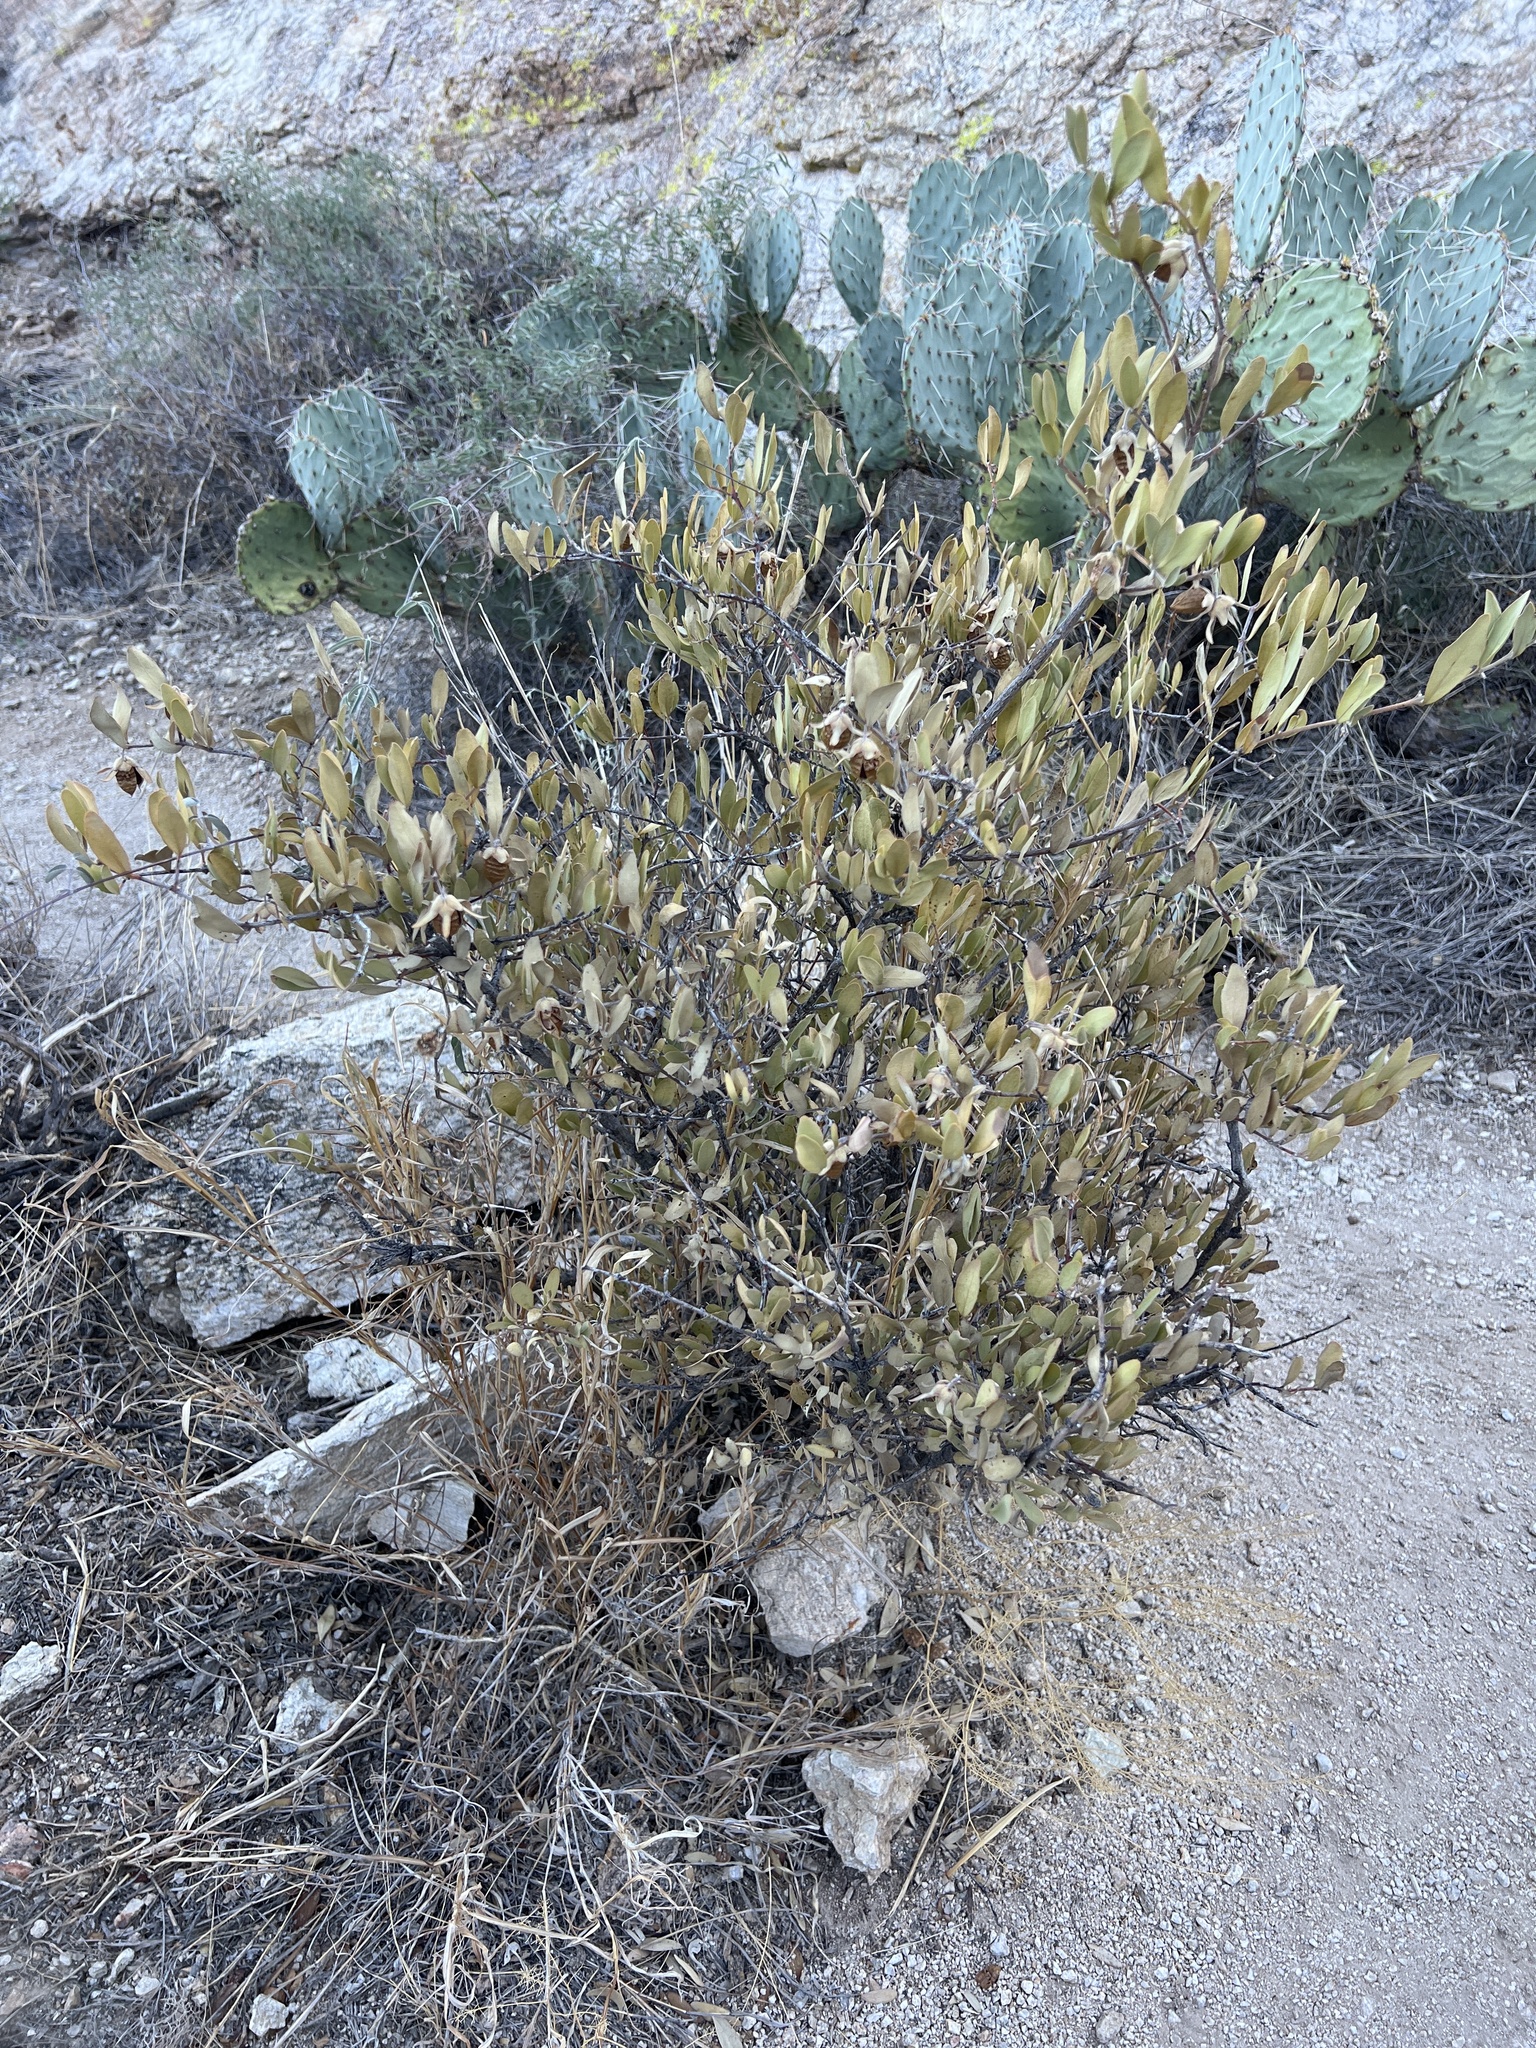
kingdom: Plantae
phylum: Tracheophyta
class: Magnoliopsida
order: Caryophyllales
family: Simmondsiaceae
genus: Simmondsia
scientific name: Simmondsia chinensis
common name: Jojoba
